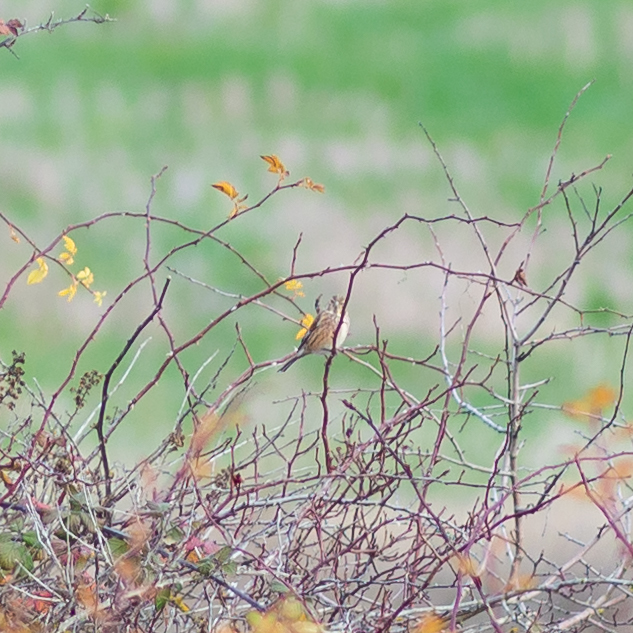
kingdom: Animalia
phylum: Chordata
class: Aves
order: Passeriformes
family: Fringillidae
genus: Linaria
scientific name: Linaria cannabina
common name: Common linnet
